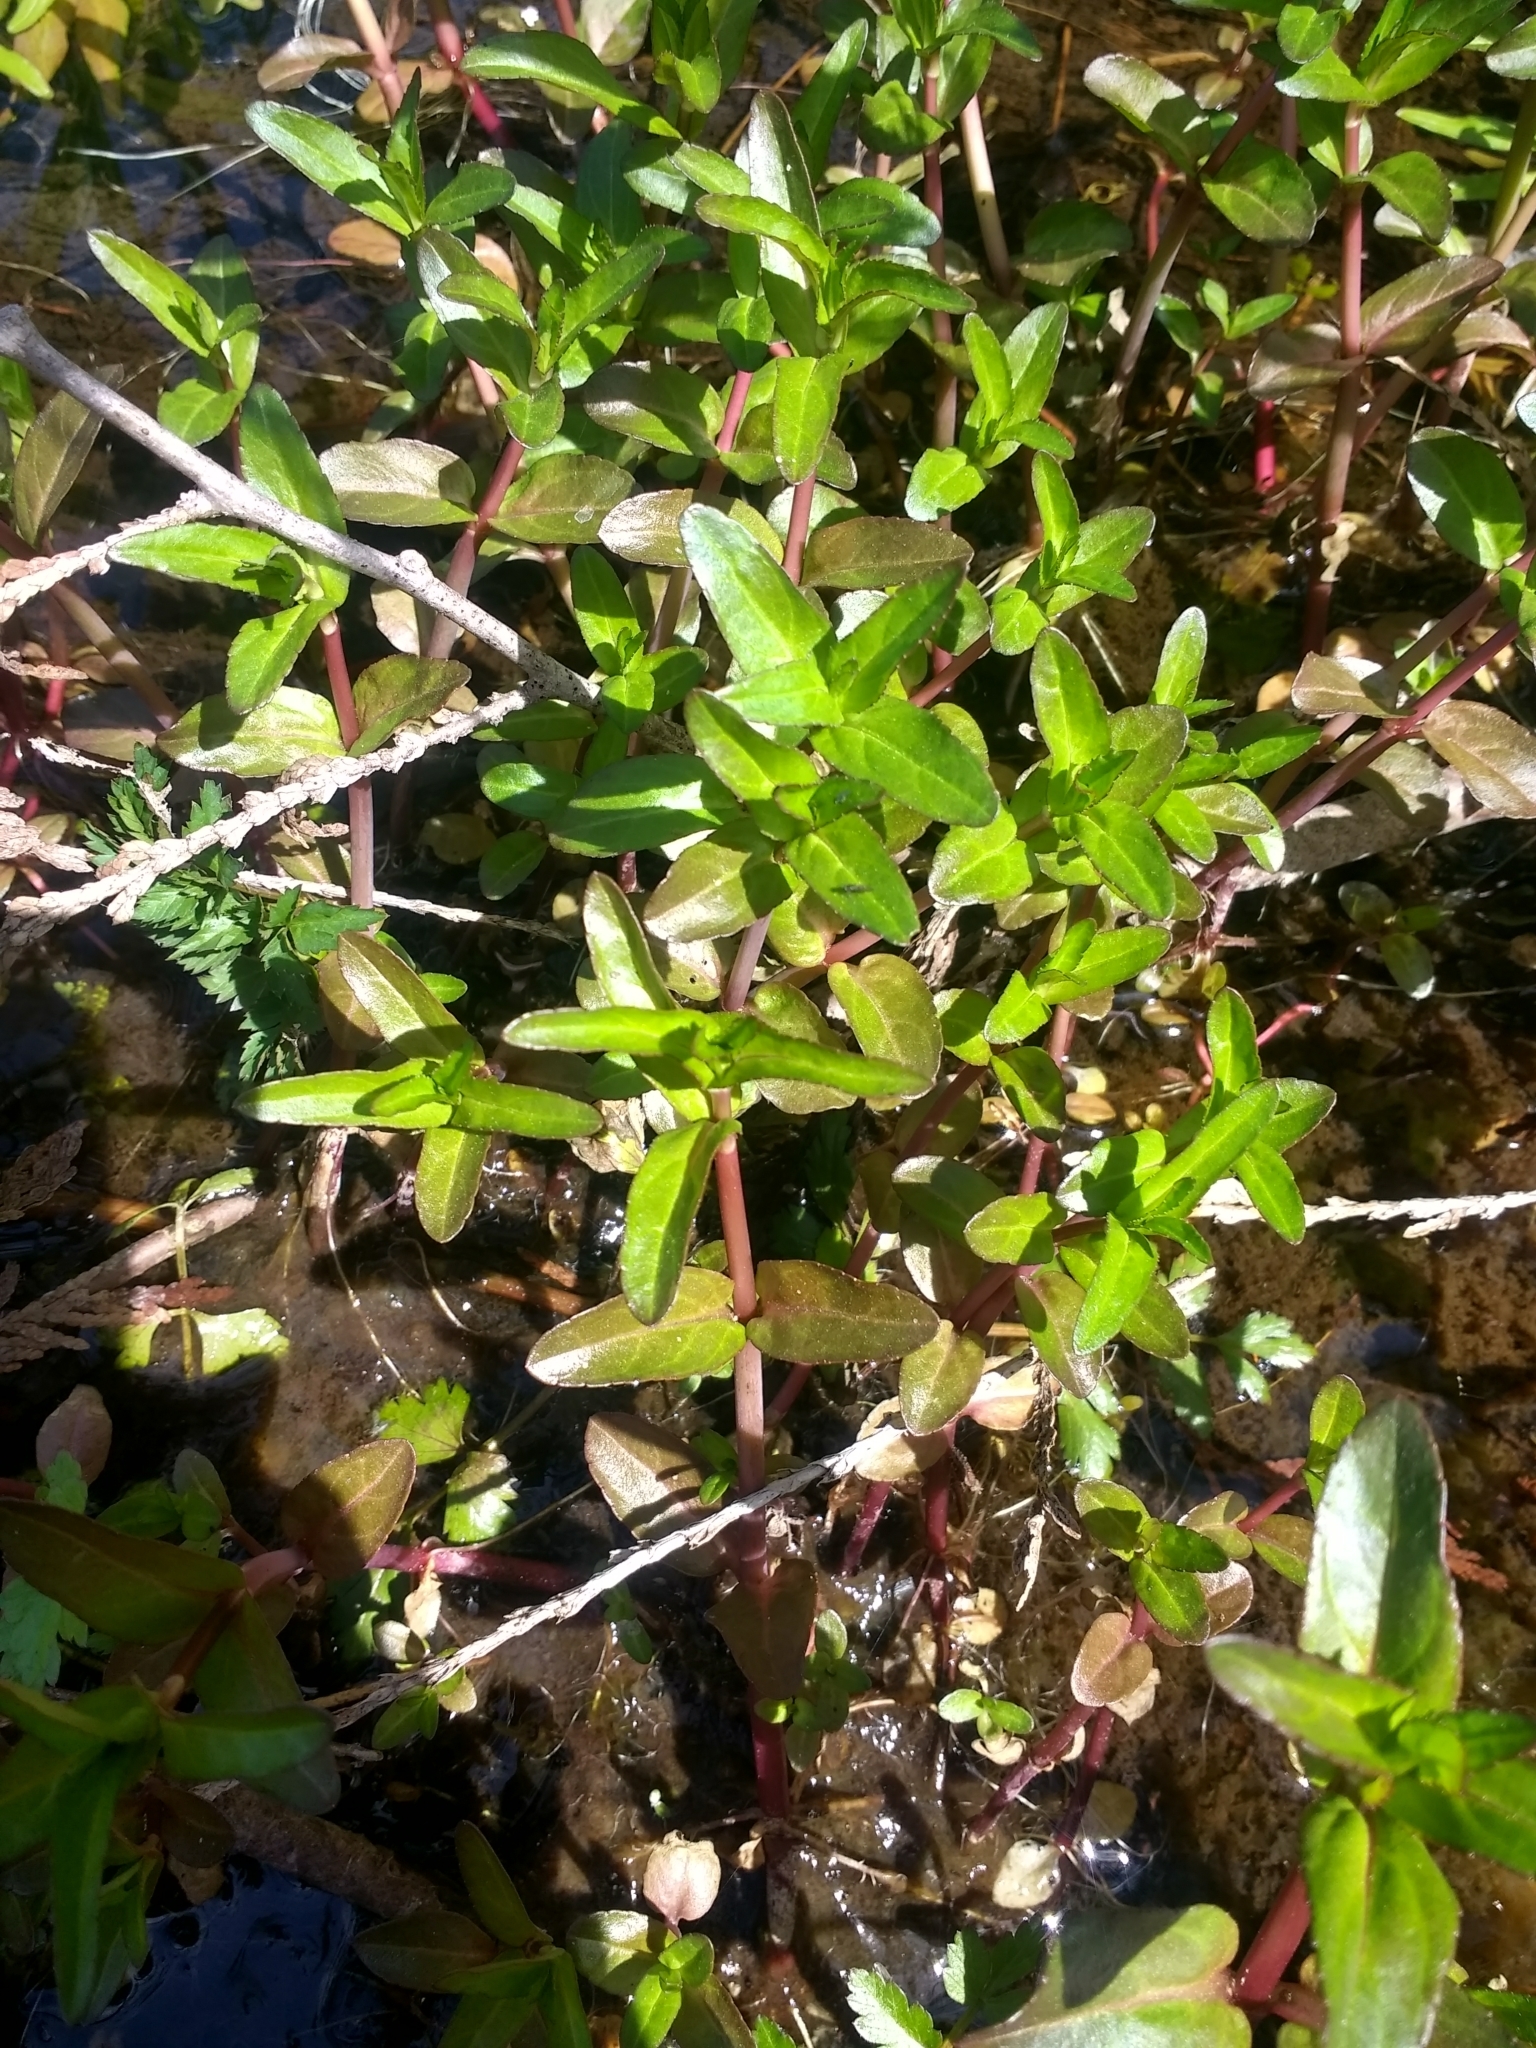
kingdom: Plantae
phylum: Tracheophyta
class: Magnoliopsida
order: Lamiales
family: Plantaginaceae
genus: Veronica
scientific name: Veronica americana
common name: American brooklime
